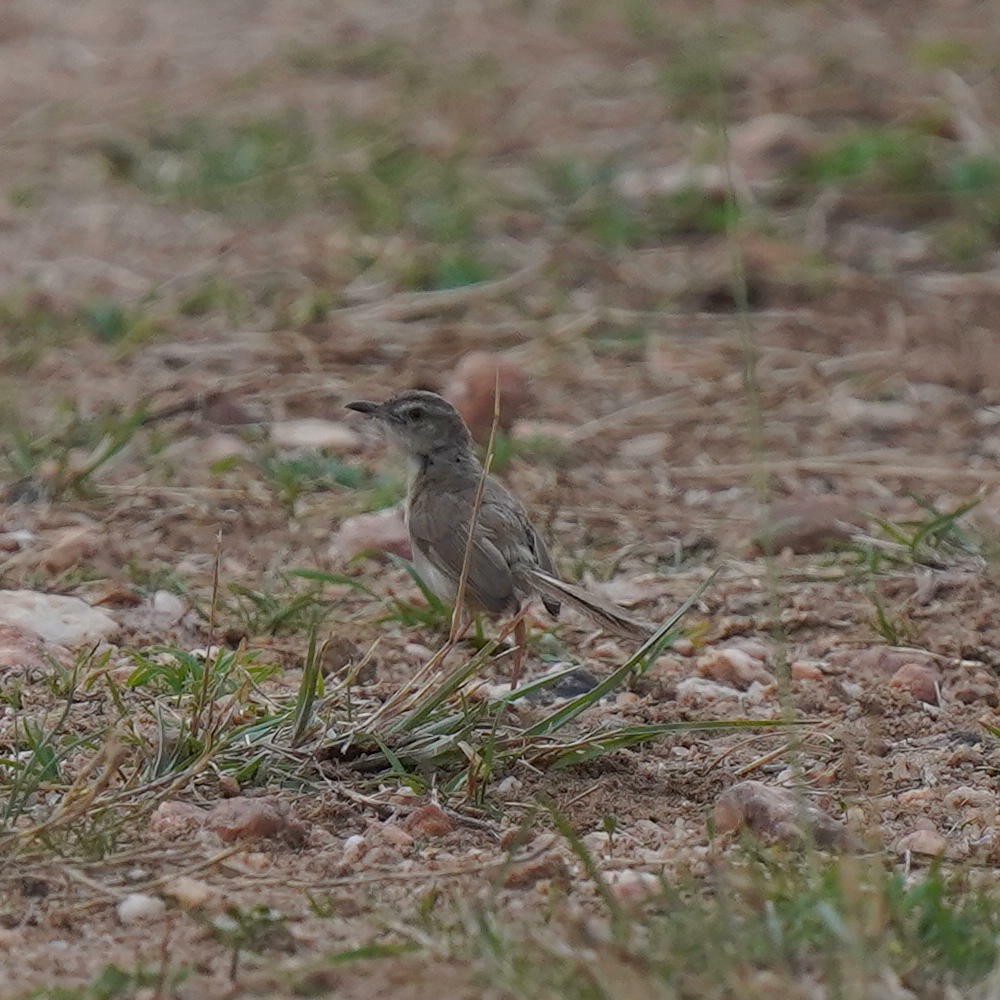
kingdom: Animalia
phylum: Chordata
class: Aves
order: Passeriformes
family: Cisticolidae
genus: Prinia
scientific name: Prinia inornata
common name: Plain prinia
